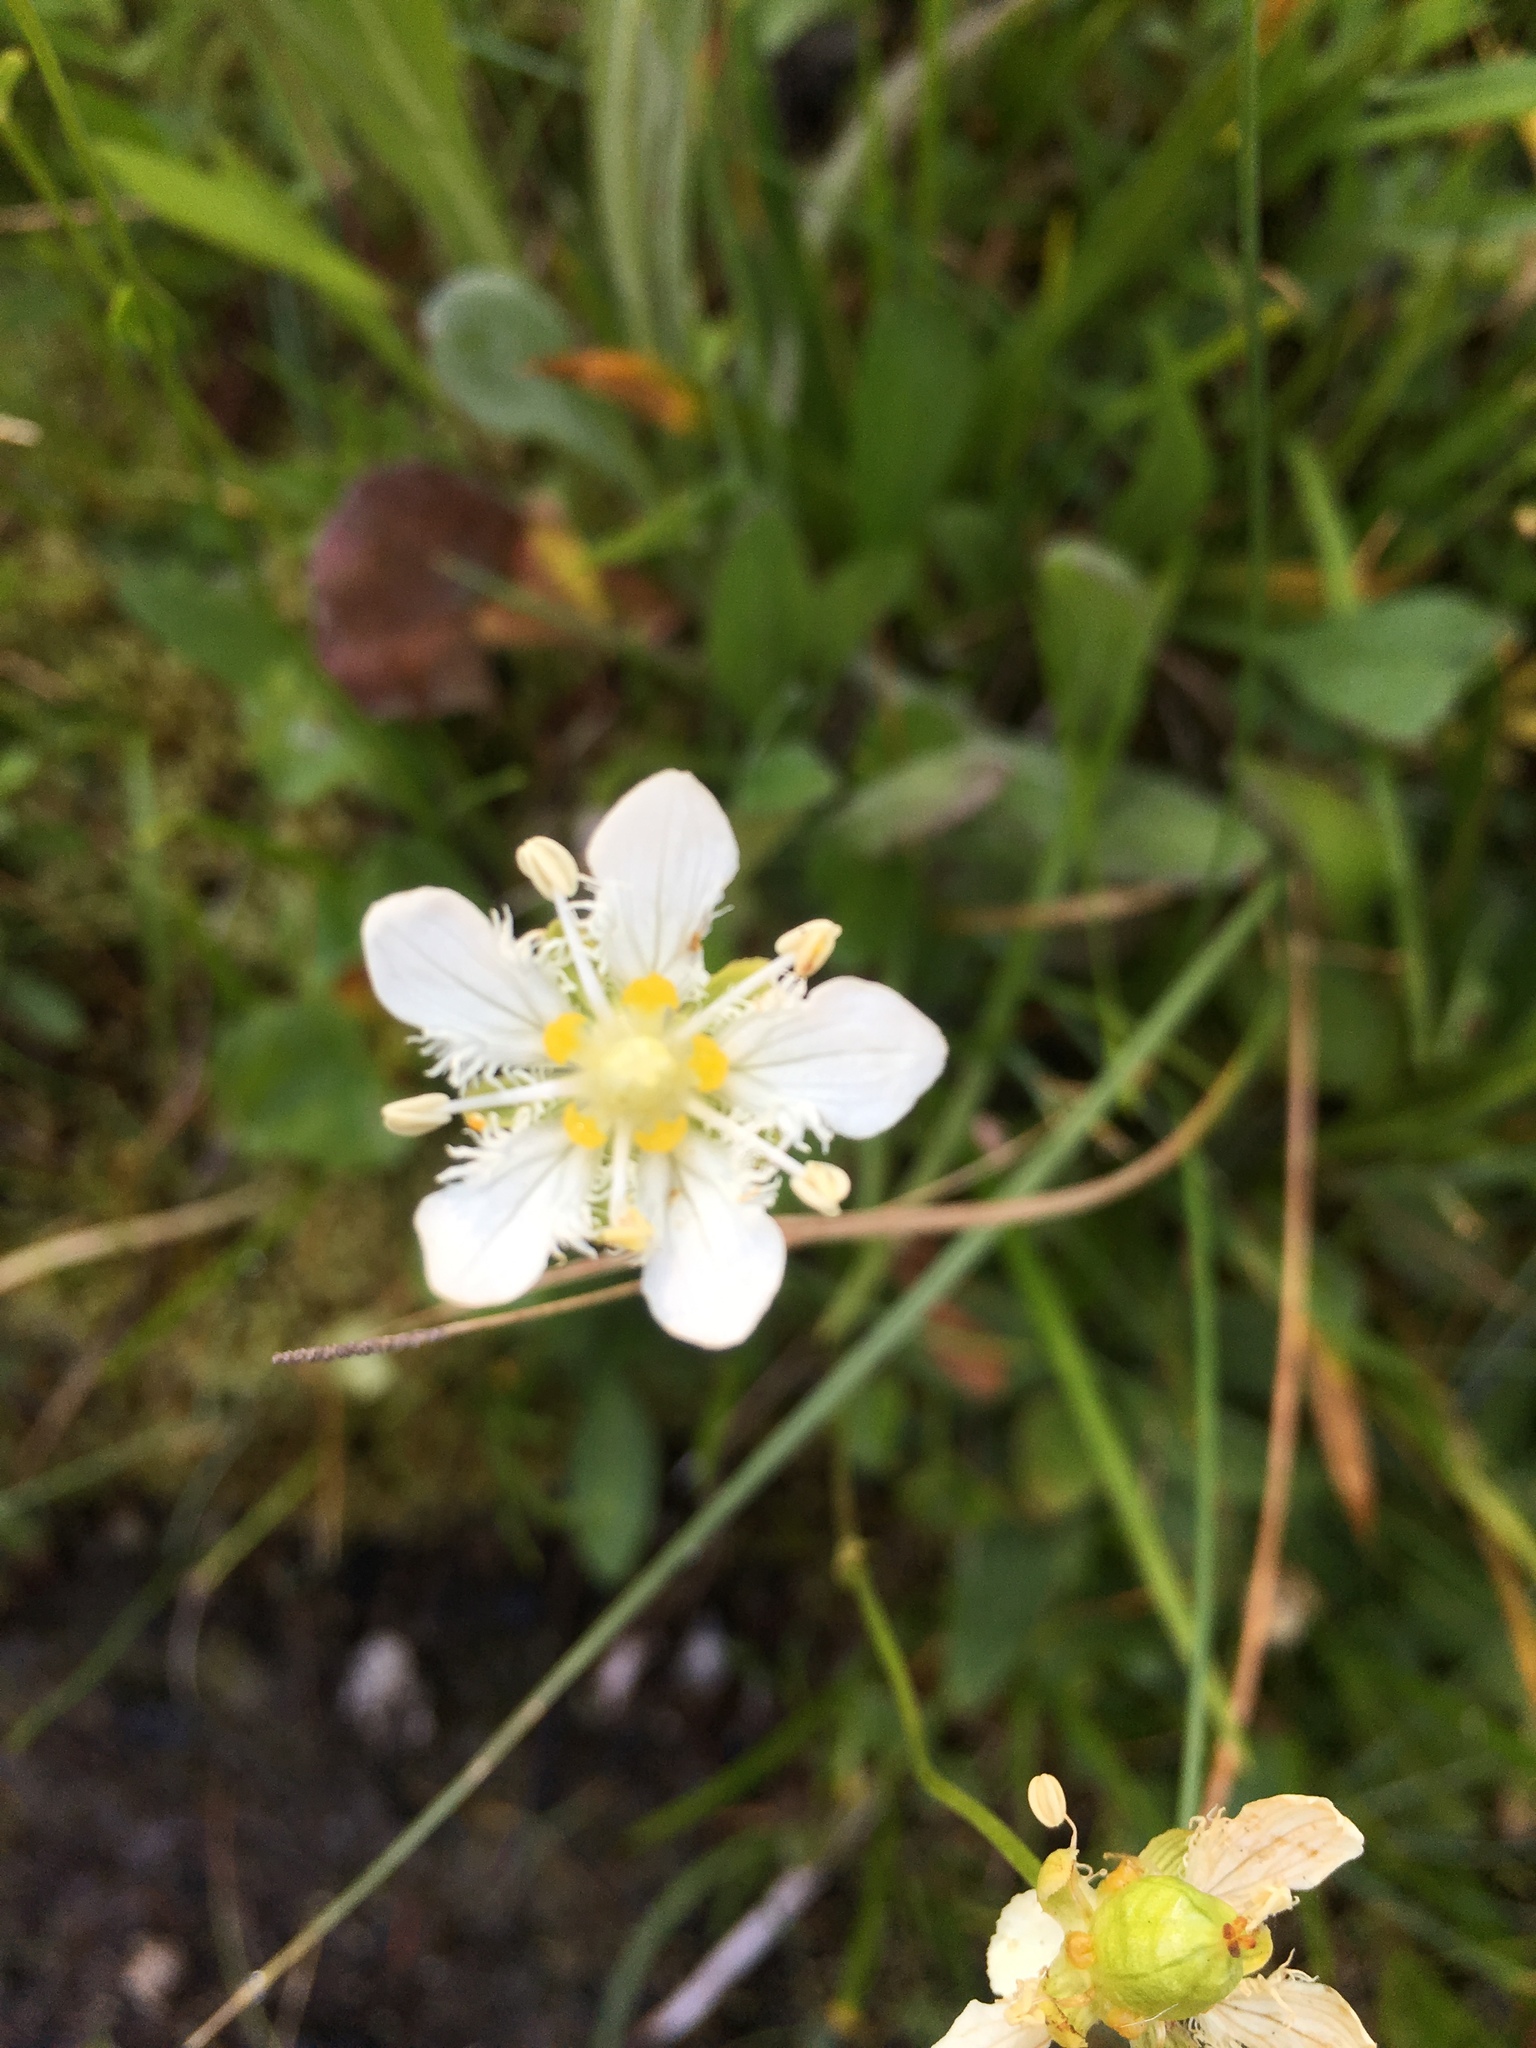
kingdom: Plantae
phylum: Tracheophyta
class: Magnoliopsida
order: Celastrales
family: Parnassiaceae
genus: Parnassia
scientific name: Parnassia fimbriata
